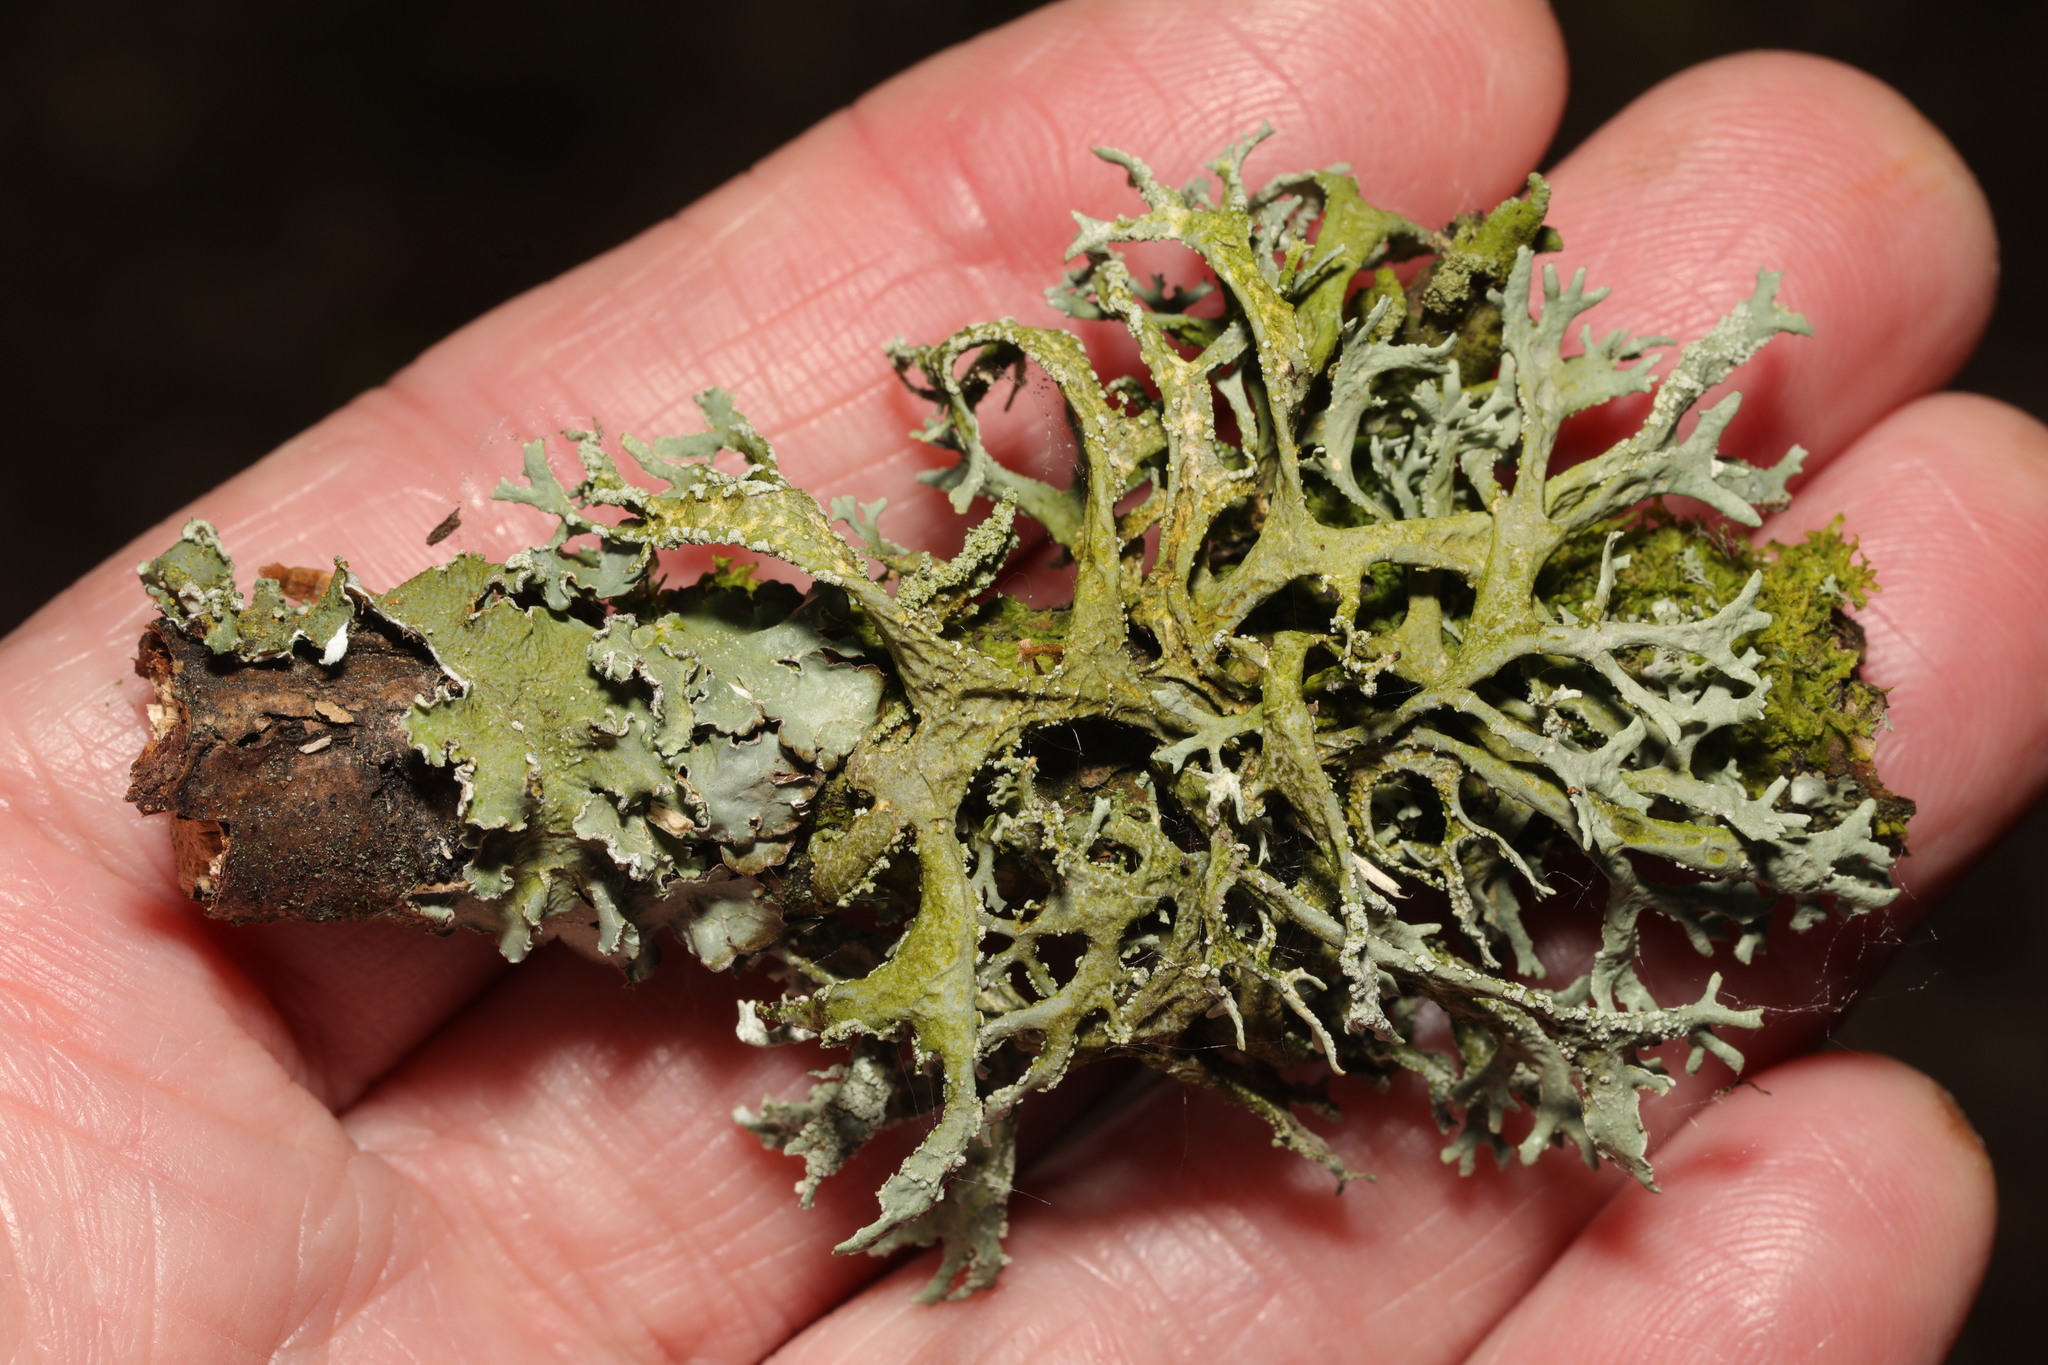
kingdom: Fungi
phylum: Ascomycota
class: Lecanoromycetes
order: Lecanorales
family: Parmeliaceae
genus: Evernia
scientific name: Evernia prunastri
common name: Oak moss
